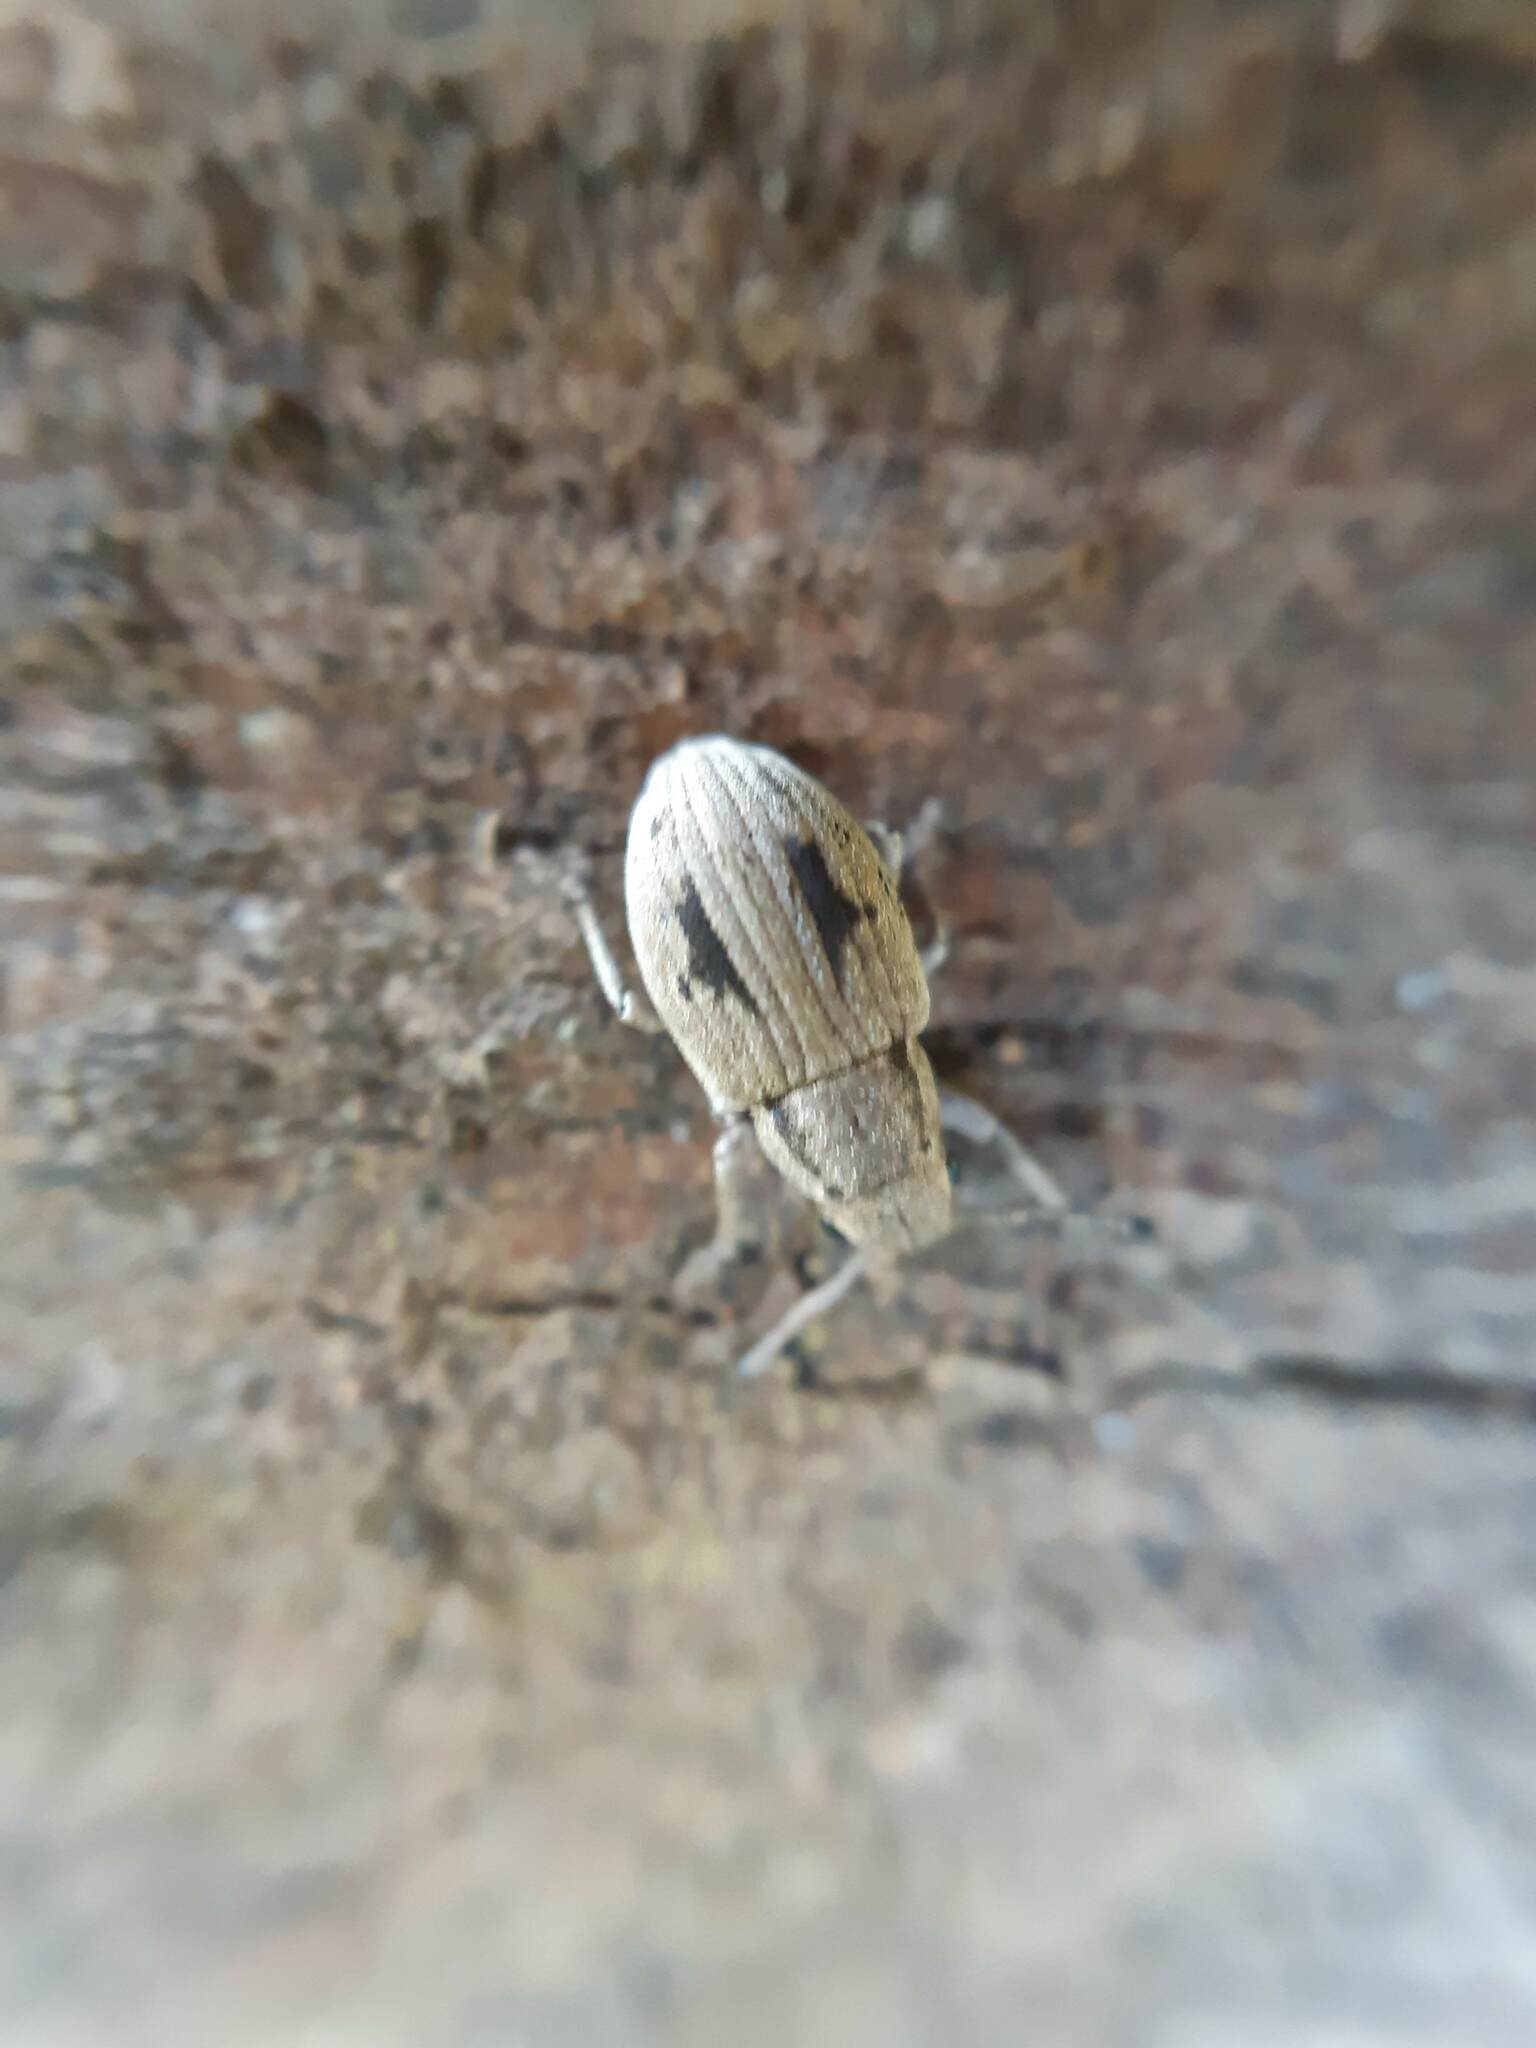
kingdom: Animalia
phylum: Arthropoda
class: Insecta
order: Coleoptera
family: Curculionidae
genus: Eurymetopus
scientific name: Eurymetopus birabeni
